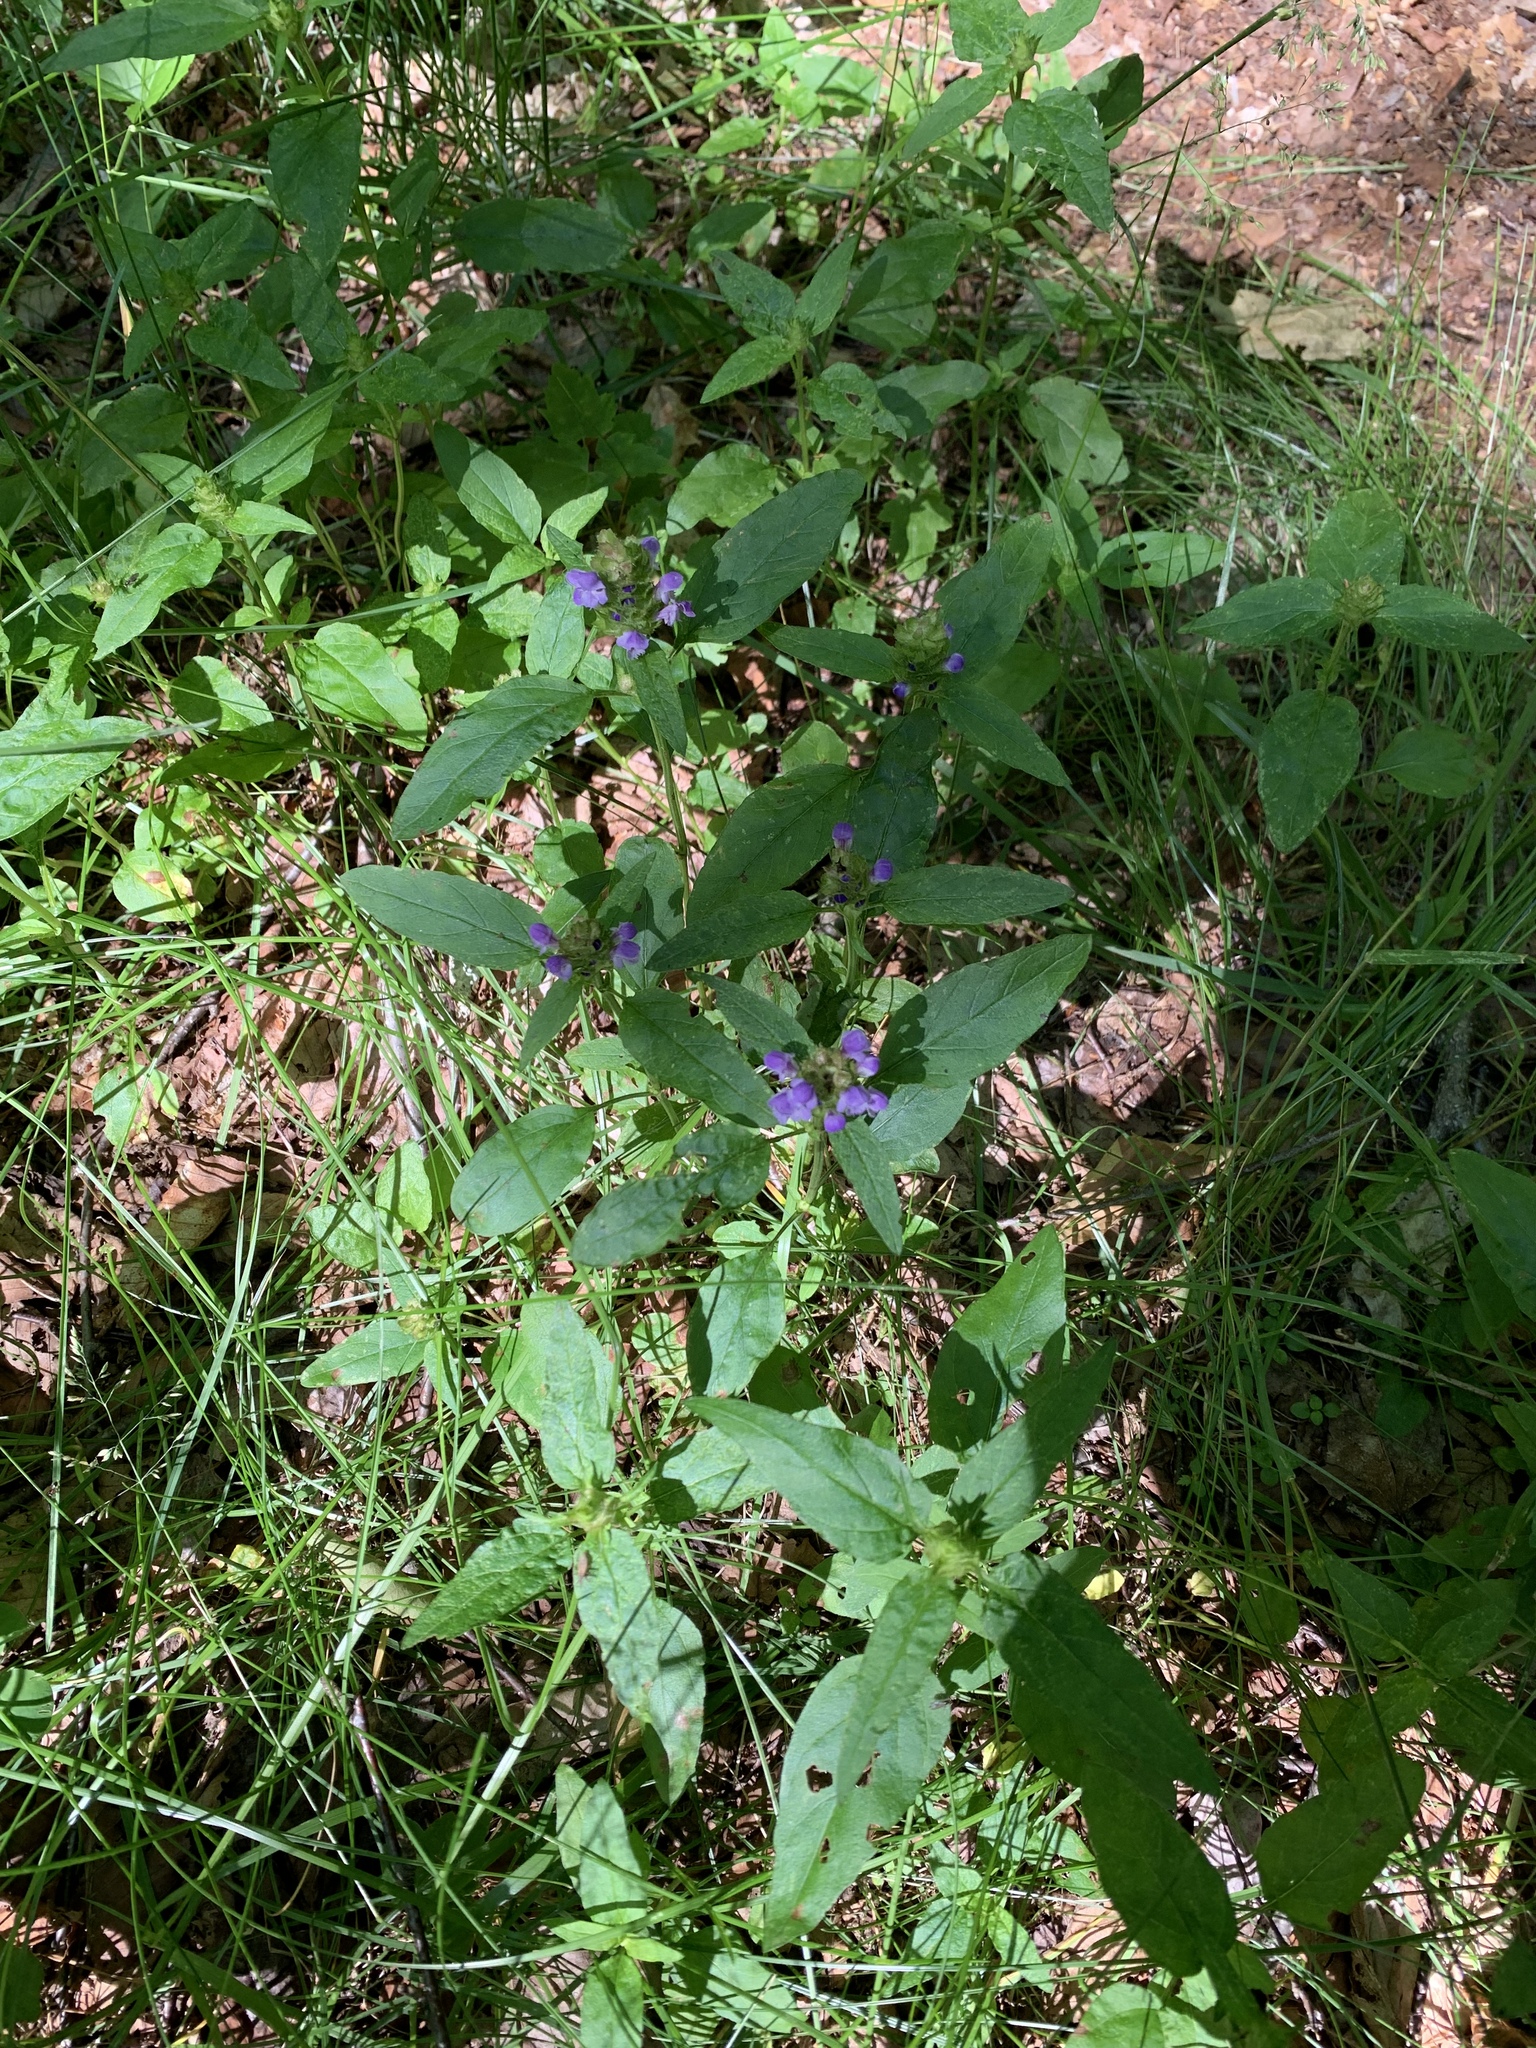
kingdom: Plantae
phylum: Tracheophyta
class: Magnoliopsida
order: Lamiales
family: Lamiaceae
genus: Prunella
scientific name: Prunella vulgaris
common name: Heal-all
